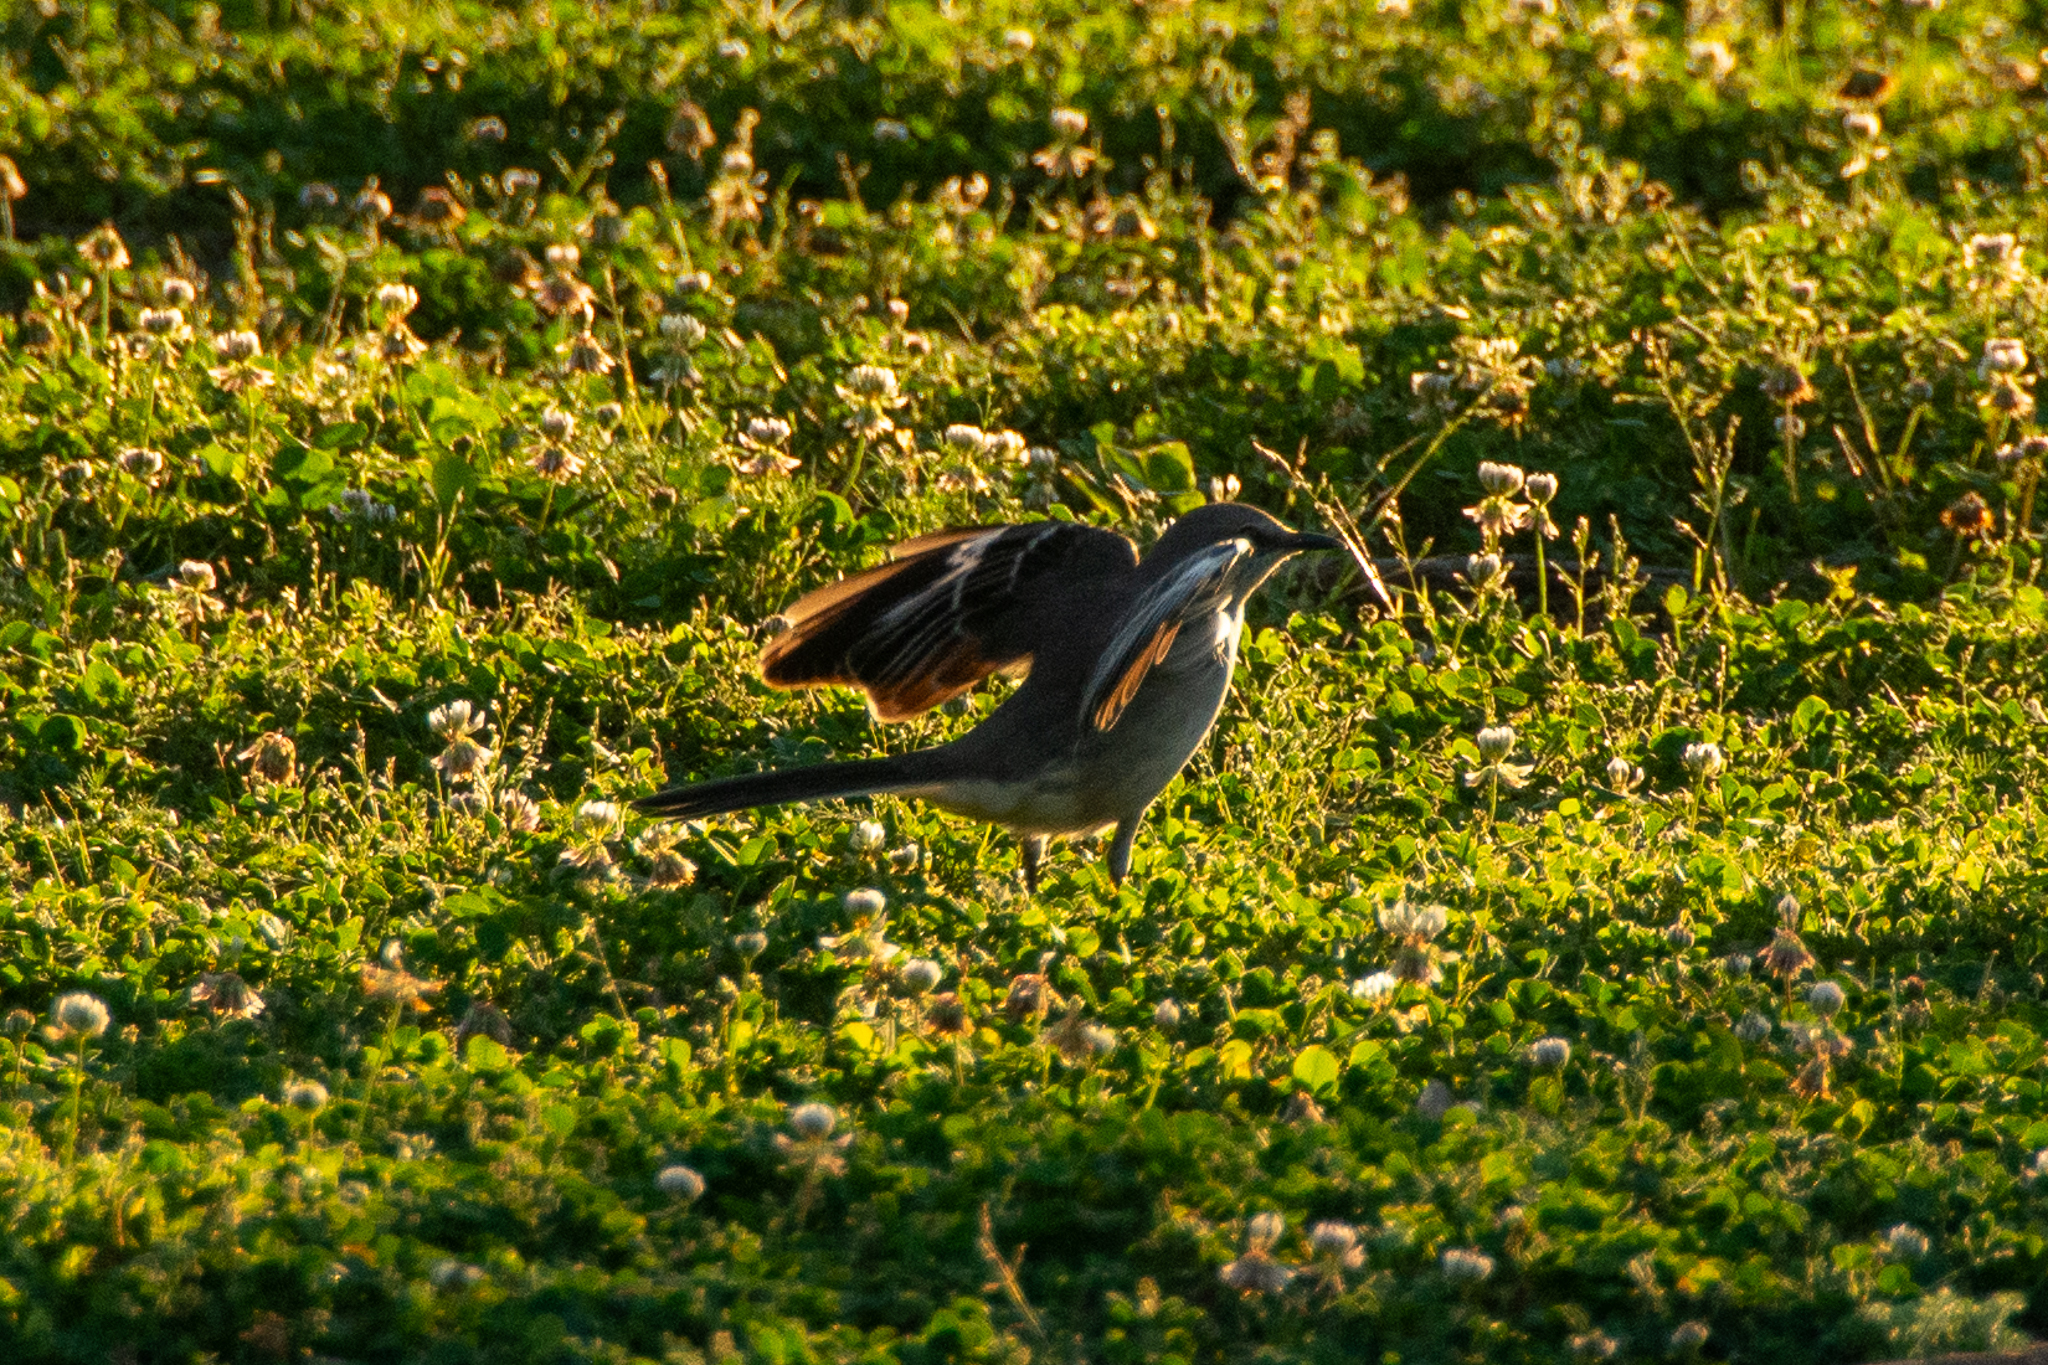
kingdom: Animalia
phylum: Chordata
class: Aves
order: Passeriformes
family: Mimidae
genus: Mimus
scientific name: Mimus polyglottos
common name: Northern mockingbird
